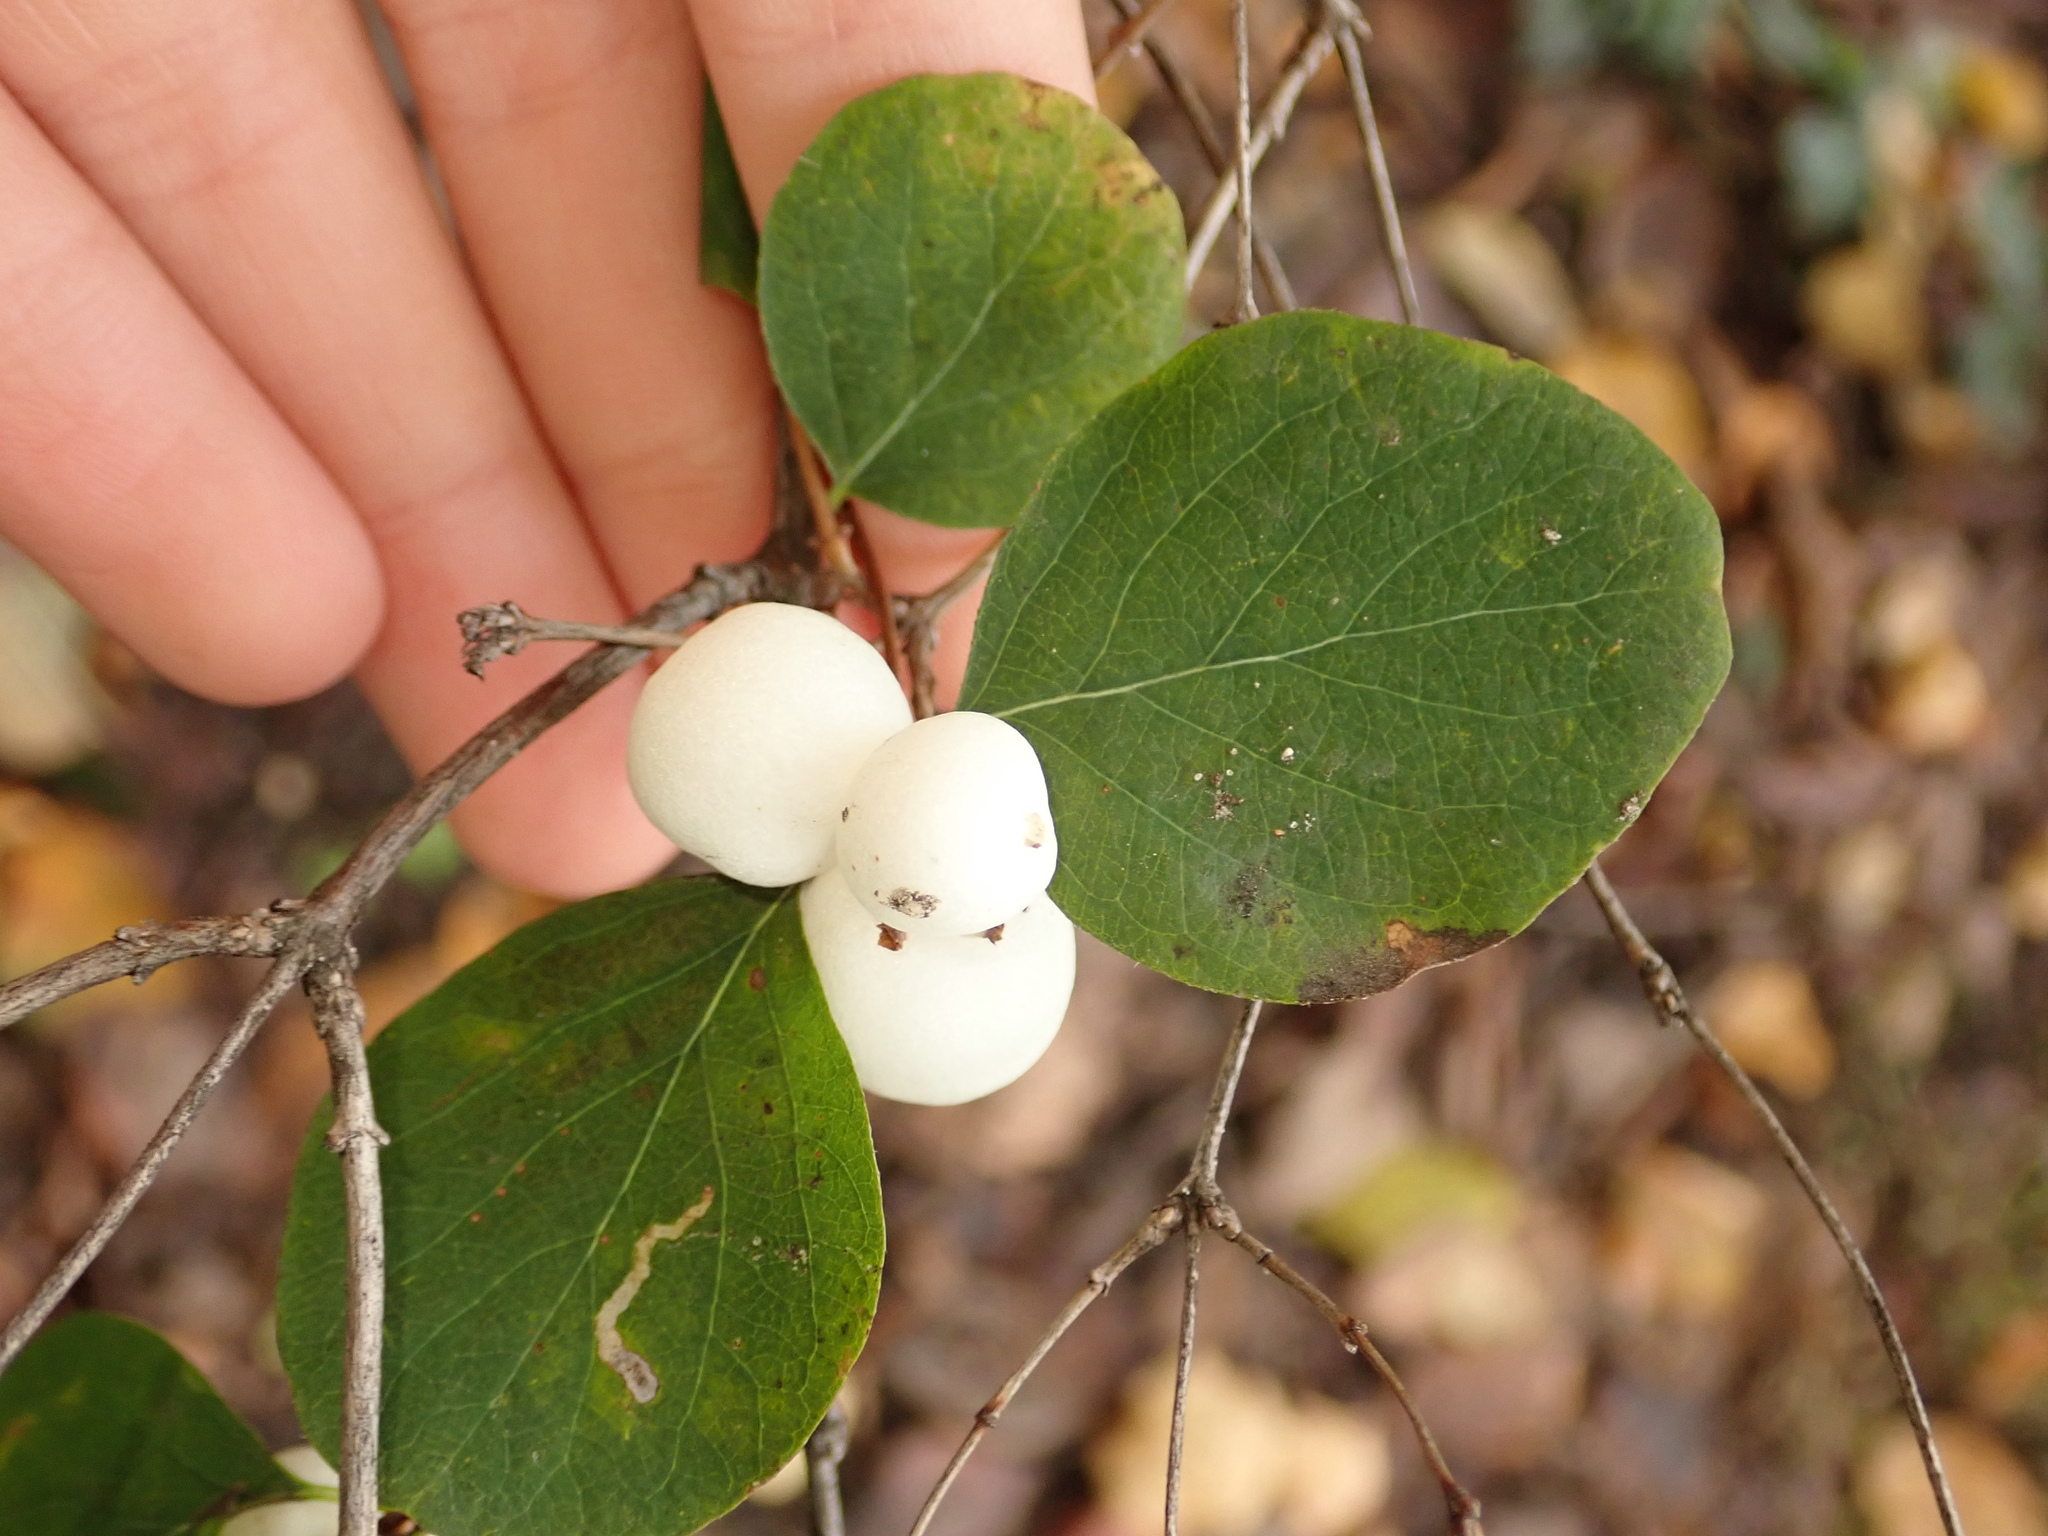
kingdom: Plantae
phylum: Tracheophyta
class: Magnoliopsida
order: Dipsacales
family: Caprifoliaceae
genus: Symphoricarpos
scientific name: Symphoricarpos albus
